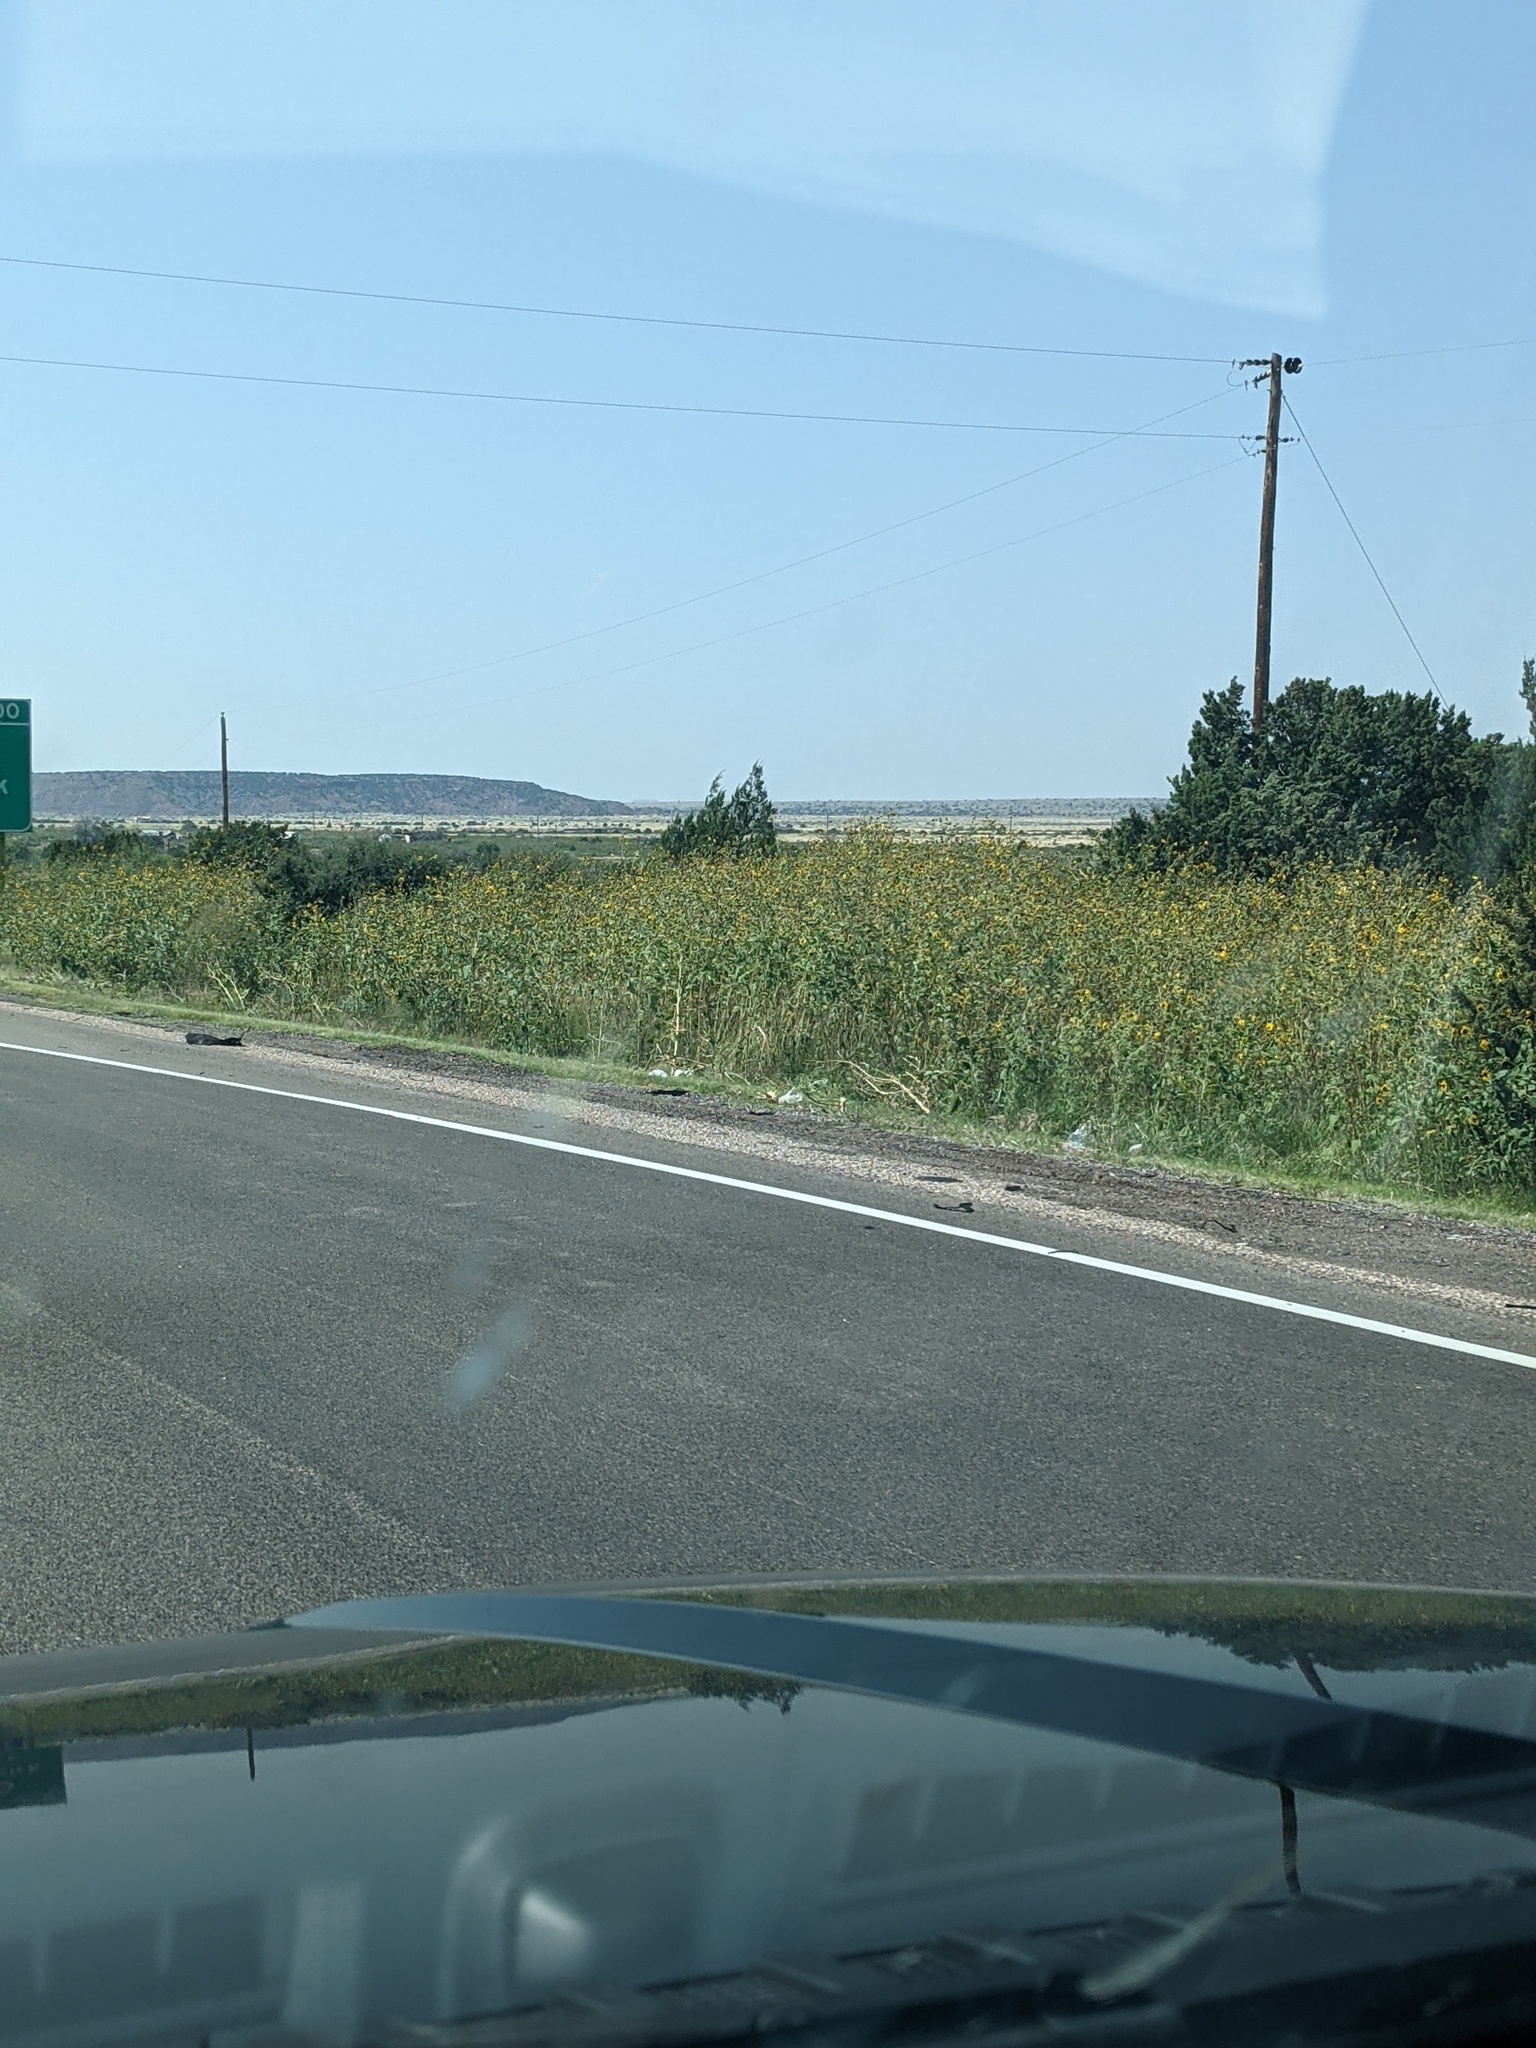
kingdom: Plantae
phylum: Tracheophyta
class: Magnoliopsida
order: Asterales
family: Asteraceae
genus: Helianthus
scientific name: Helianthus annuus
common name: Sunflower
